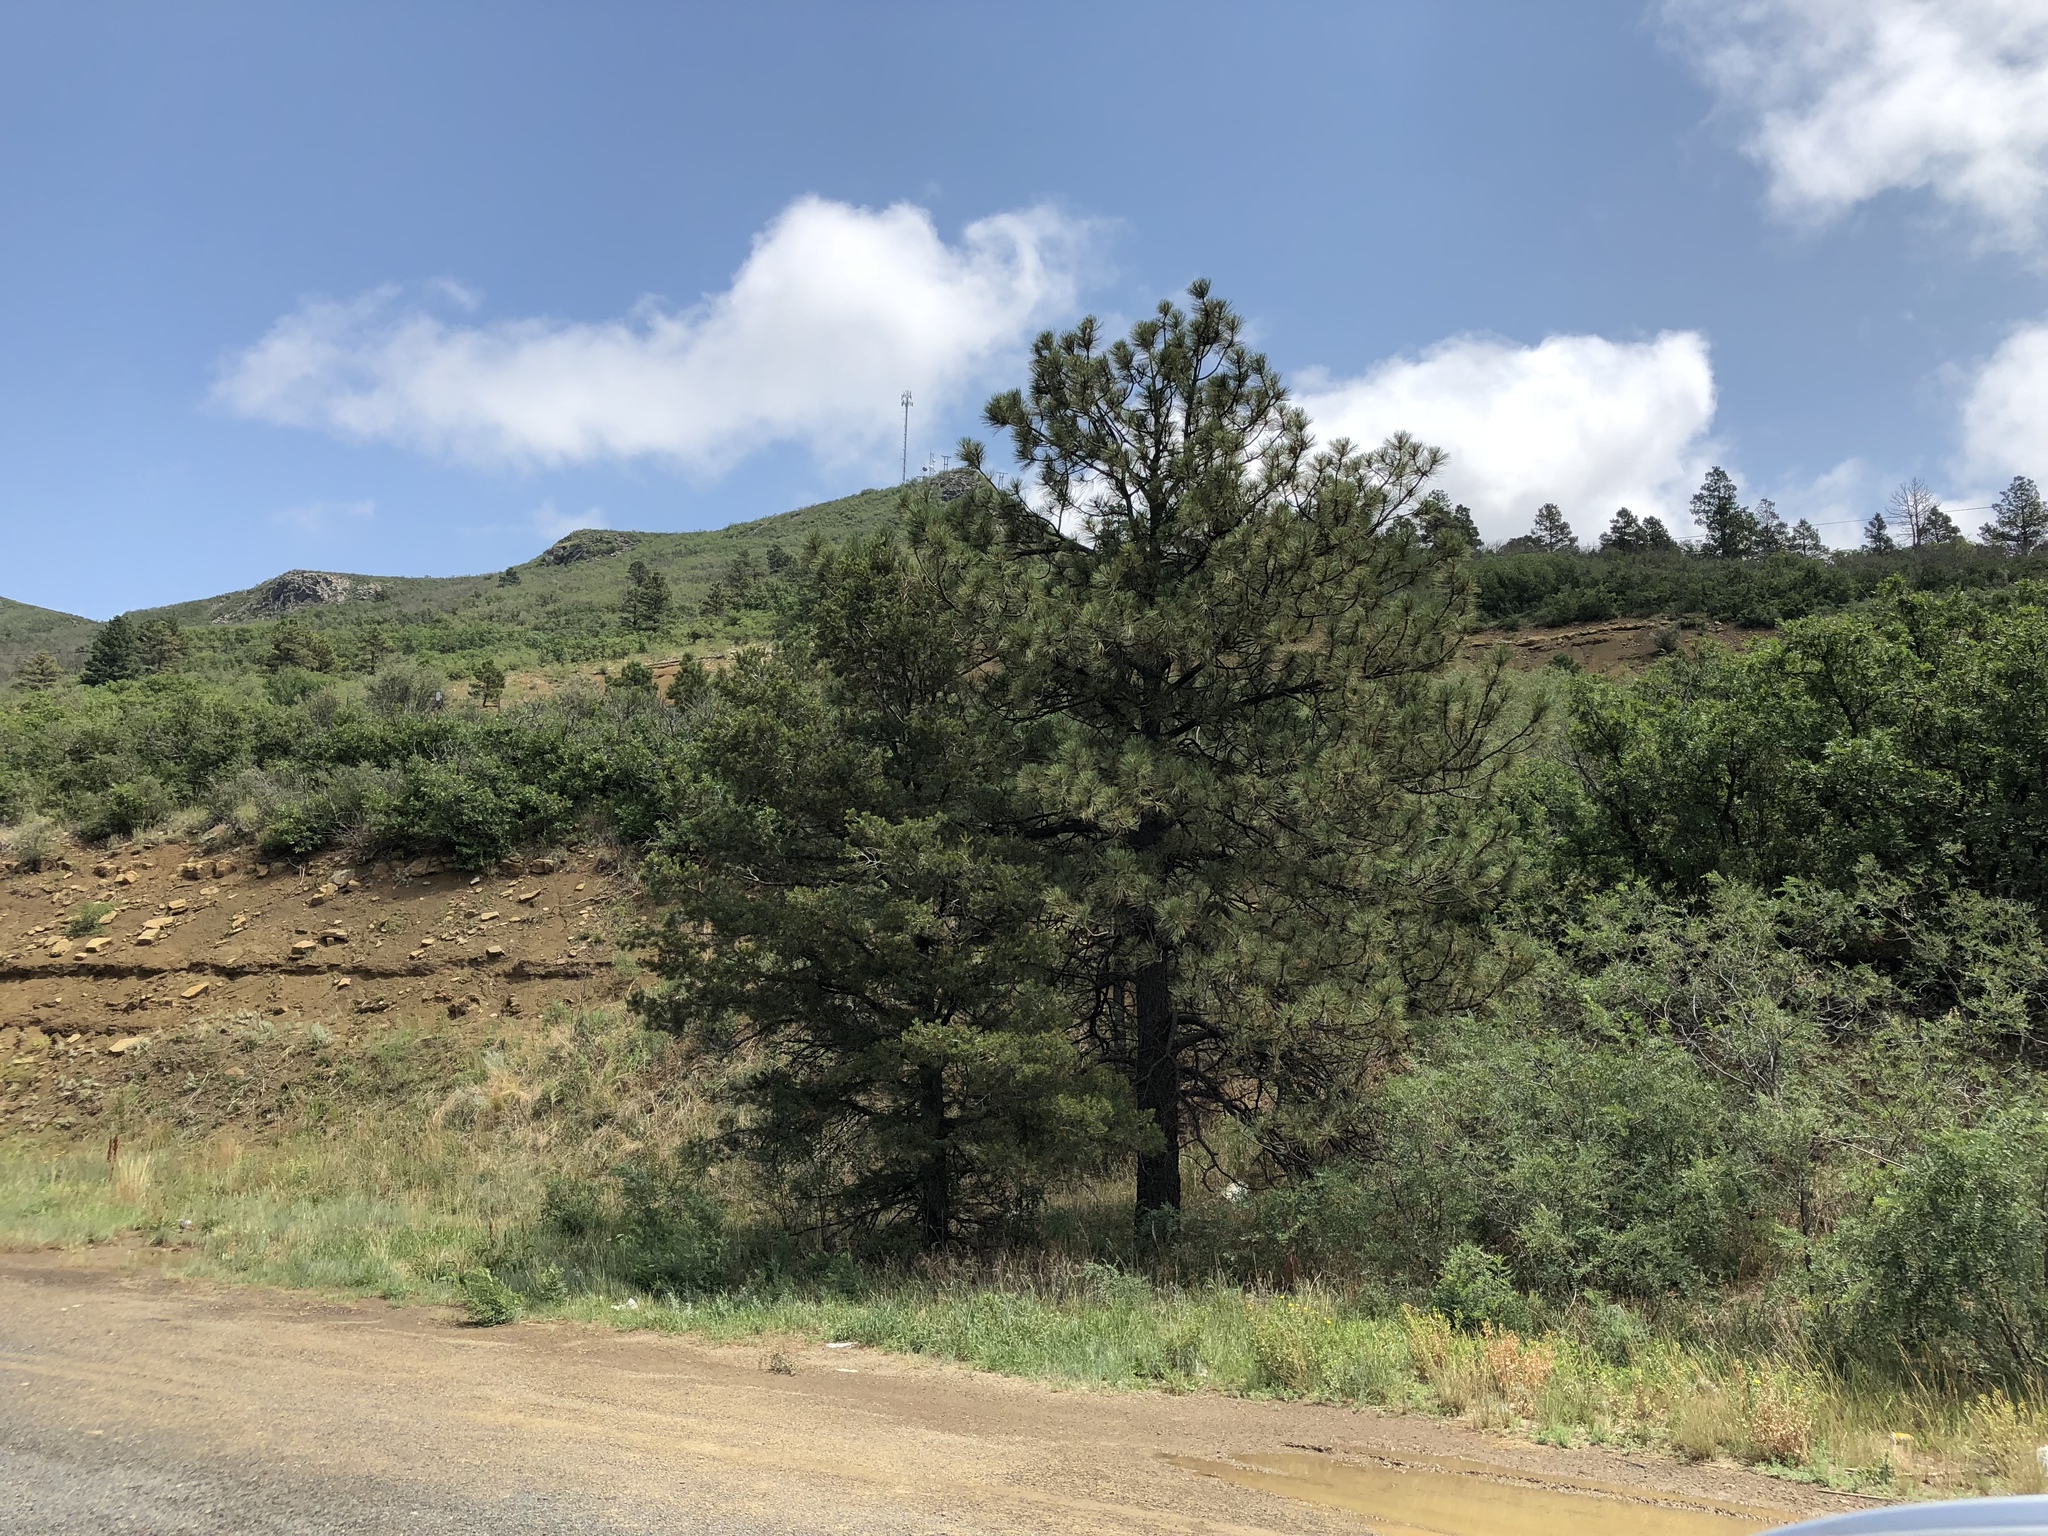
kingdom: Plantae
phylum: Tracheophyta
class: Pinopsida
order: Pinales
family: Pinaceae
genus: Pinus
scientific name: Pinus ponderosa
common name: Western yellow-pine
